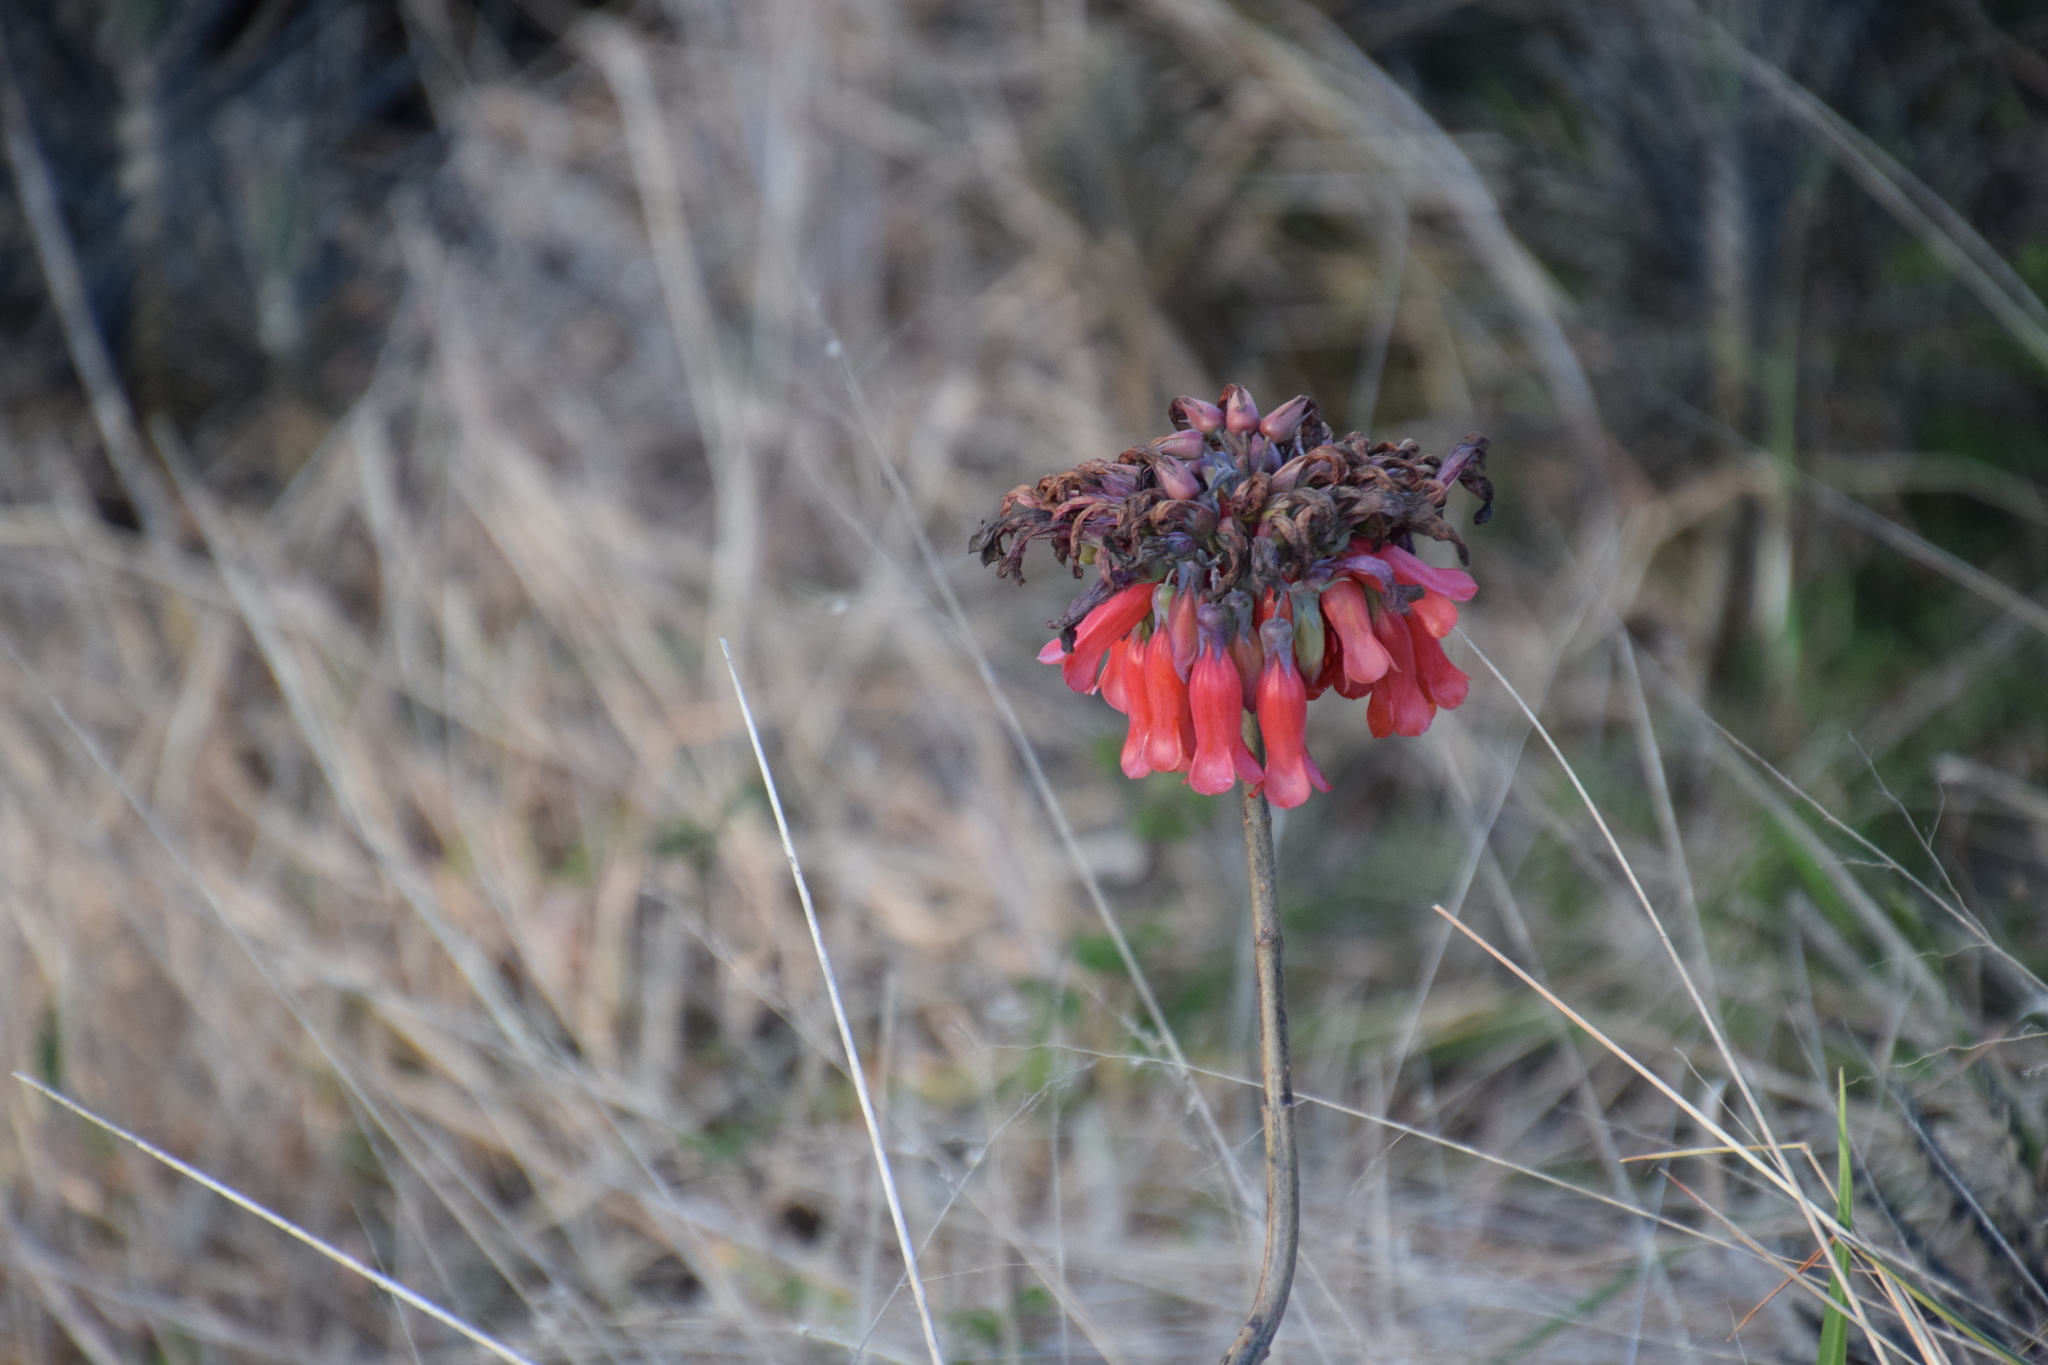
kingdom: Plantae
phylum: Tracheophyta
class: Magnoliopsida
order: Saxifragales
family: Crassulaceae
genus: Kalanchoe
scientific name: Kalanchoe
